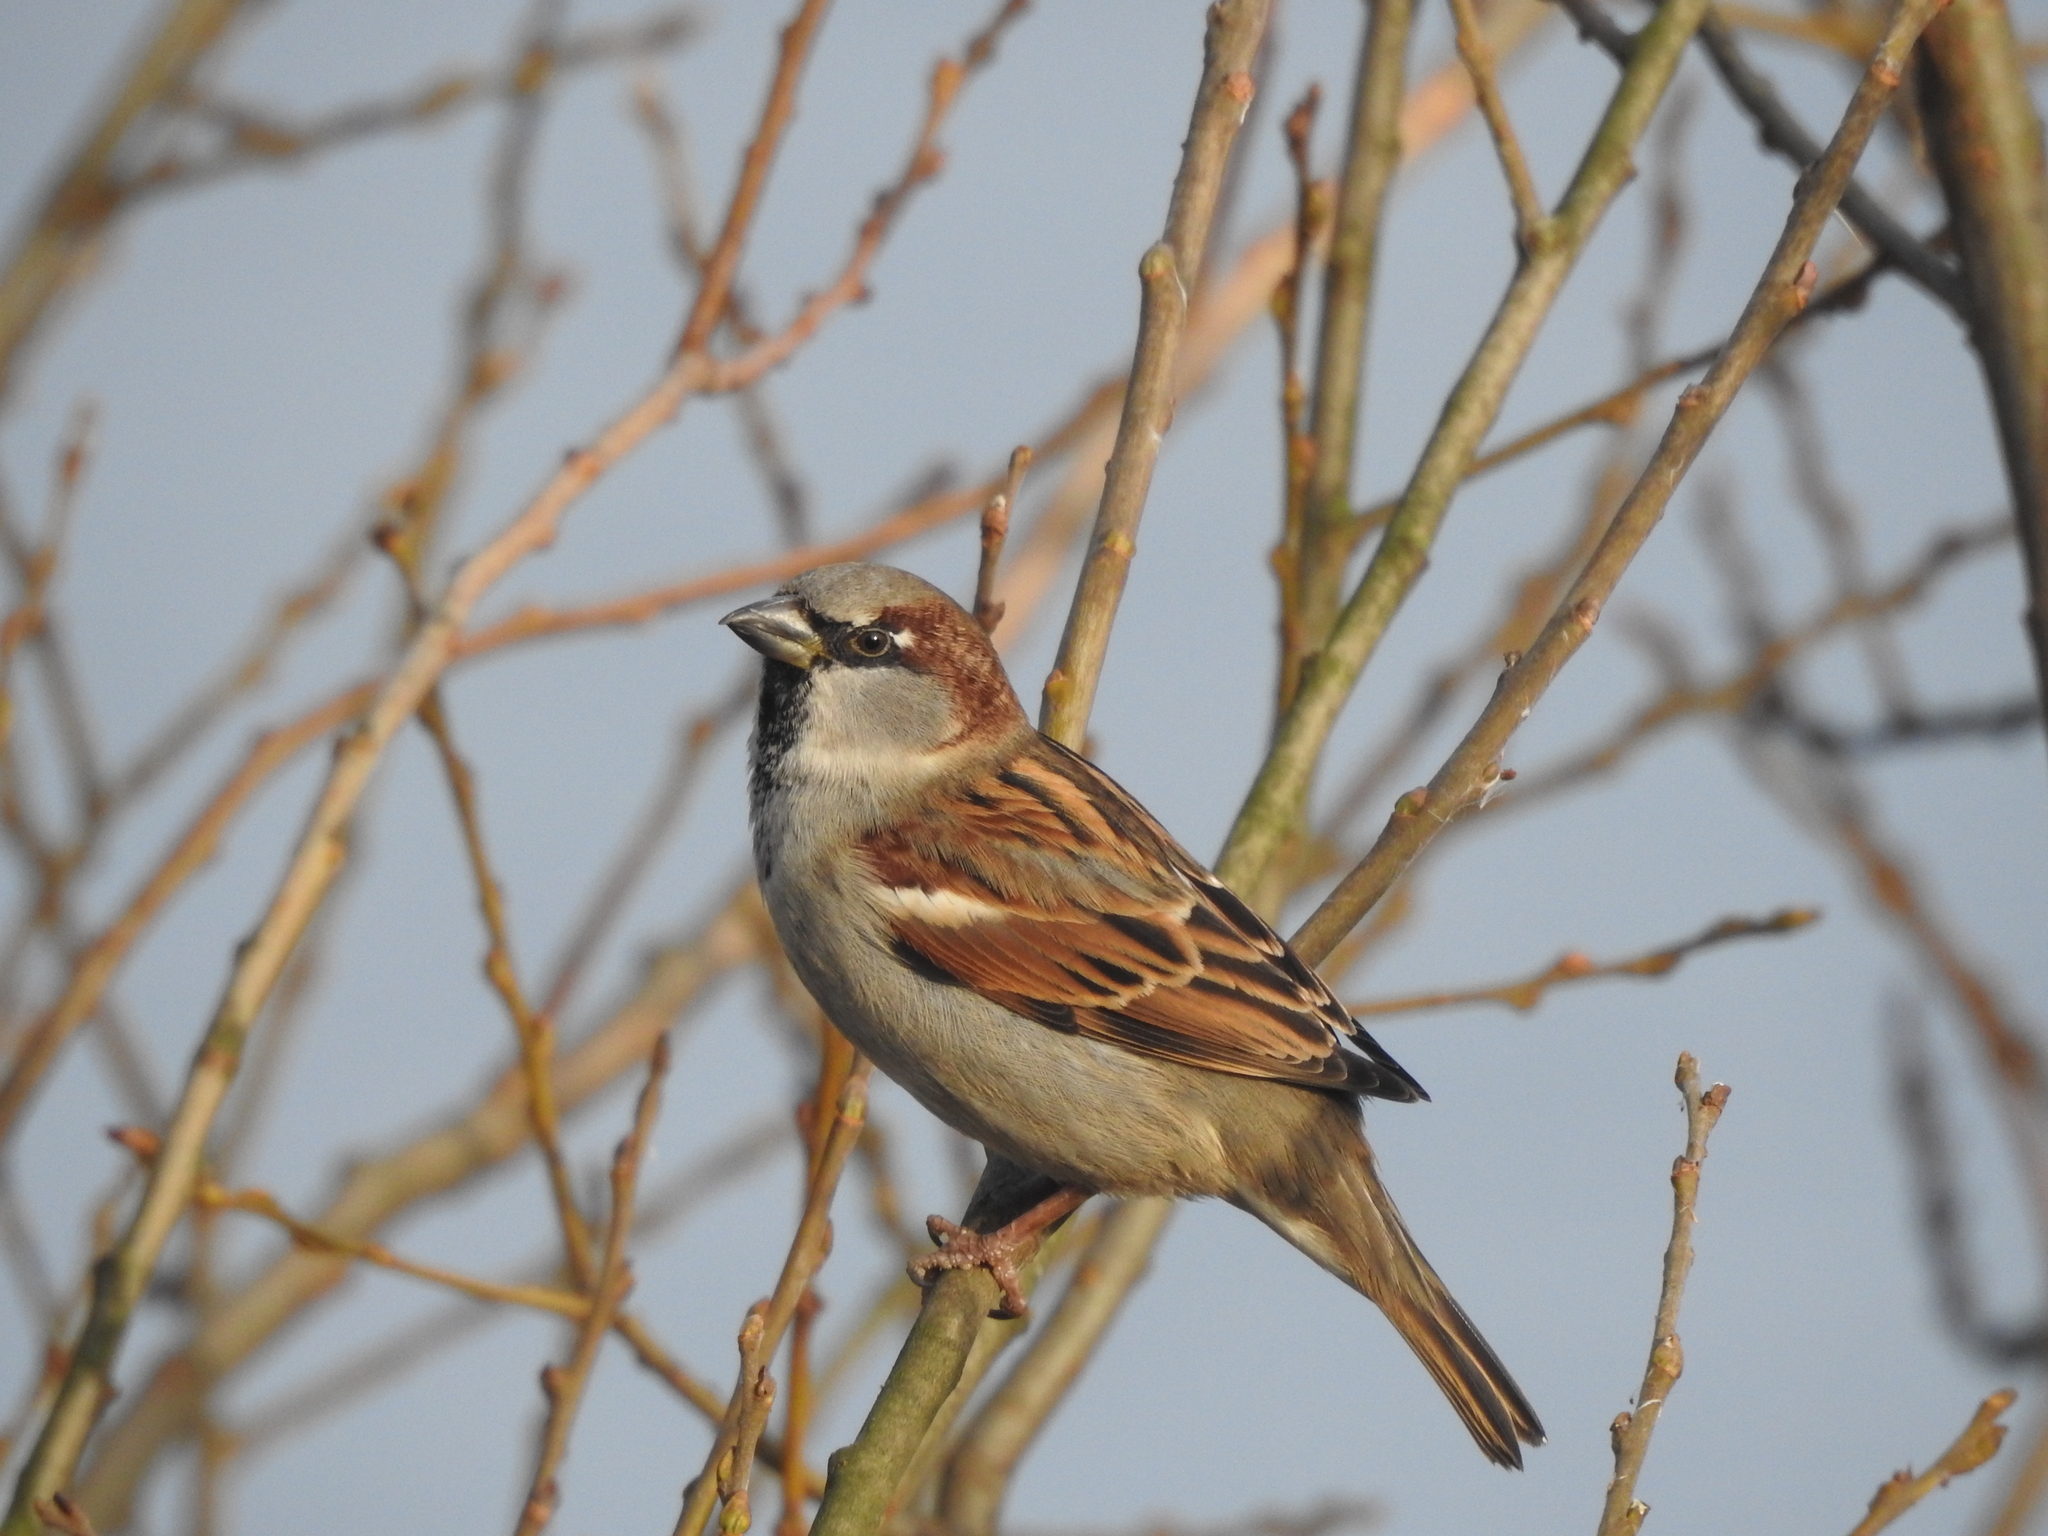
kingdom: Animalia
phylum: Chordata
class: Aves
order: Passeriformes
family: Passeridae
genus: Passer
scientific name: Passer domesticus
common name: House sparrow
